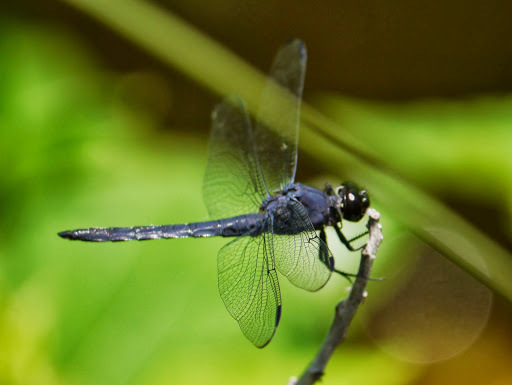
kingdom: Animalia
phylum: Arthropoda
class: Insecta
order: Odonata
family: Libellulidae
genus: Libellula
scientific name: Libellula incesta
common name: Slaty skimmer
